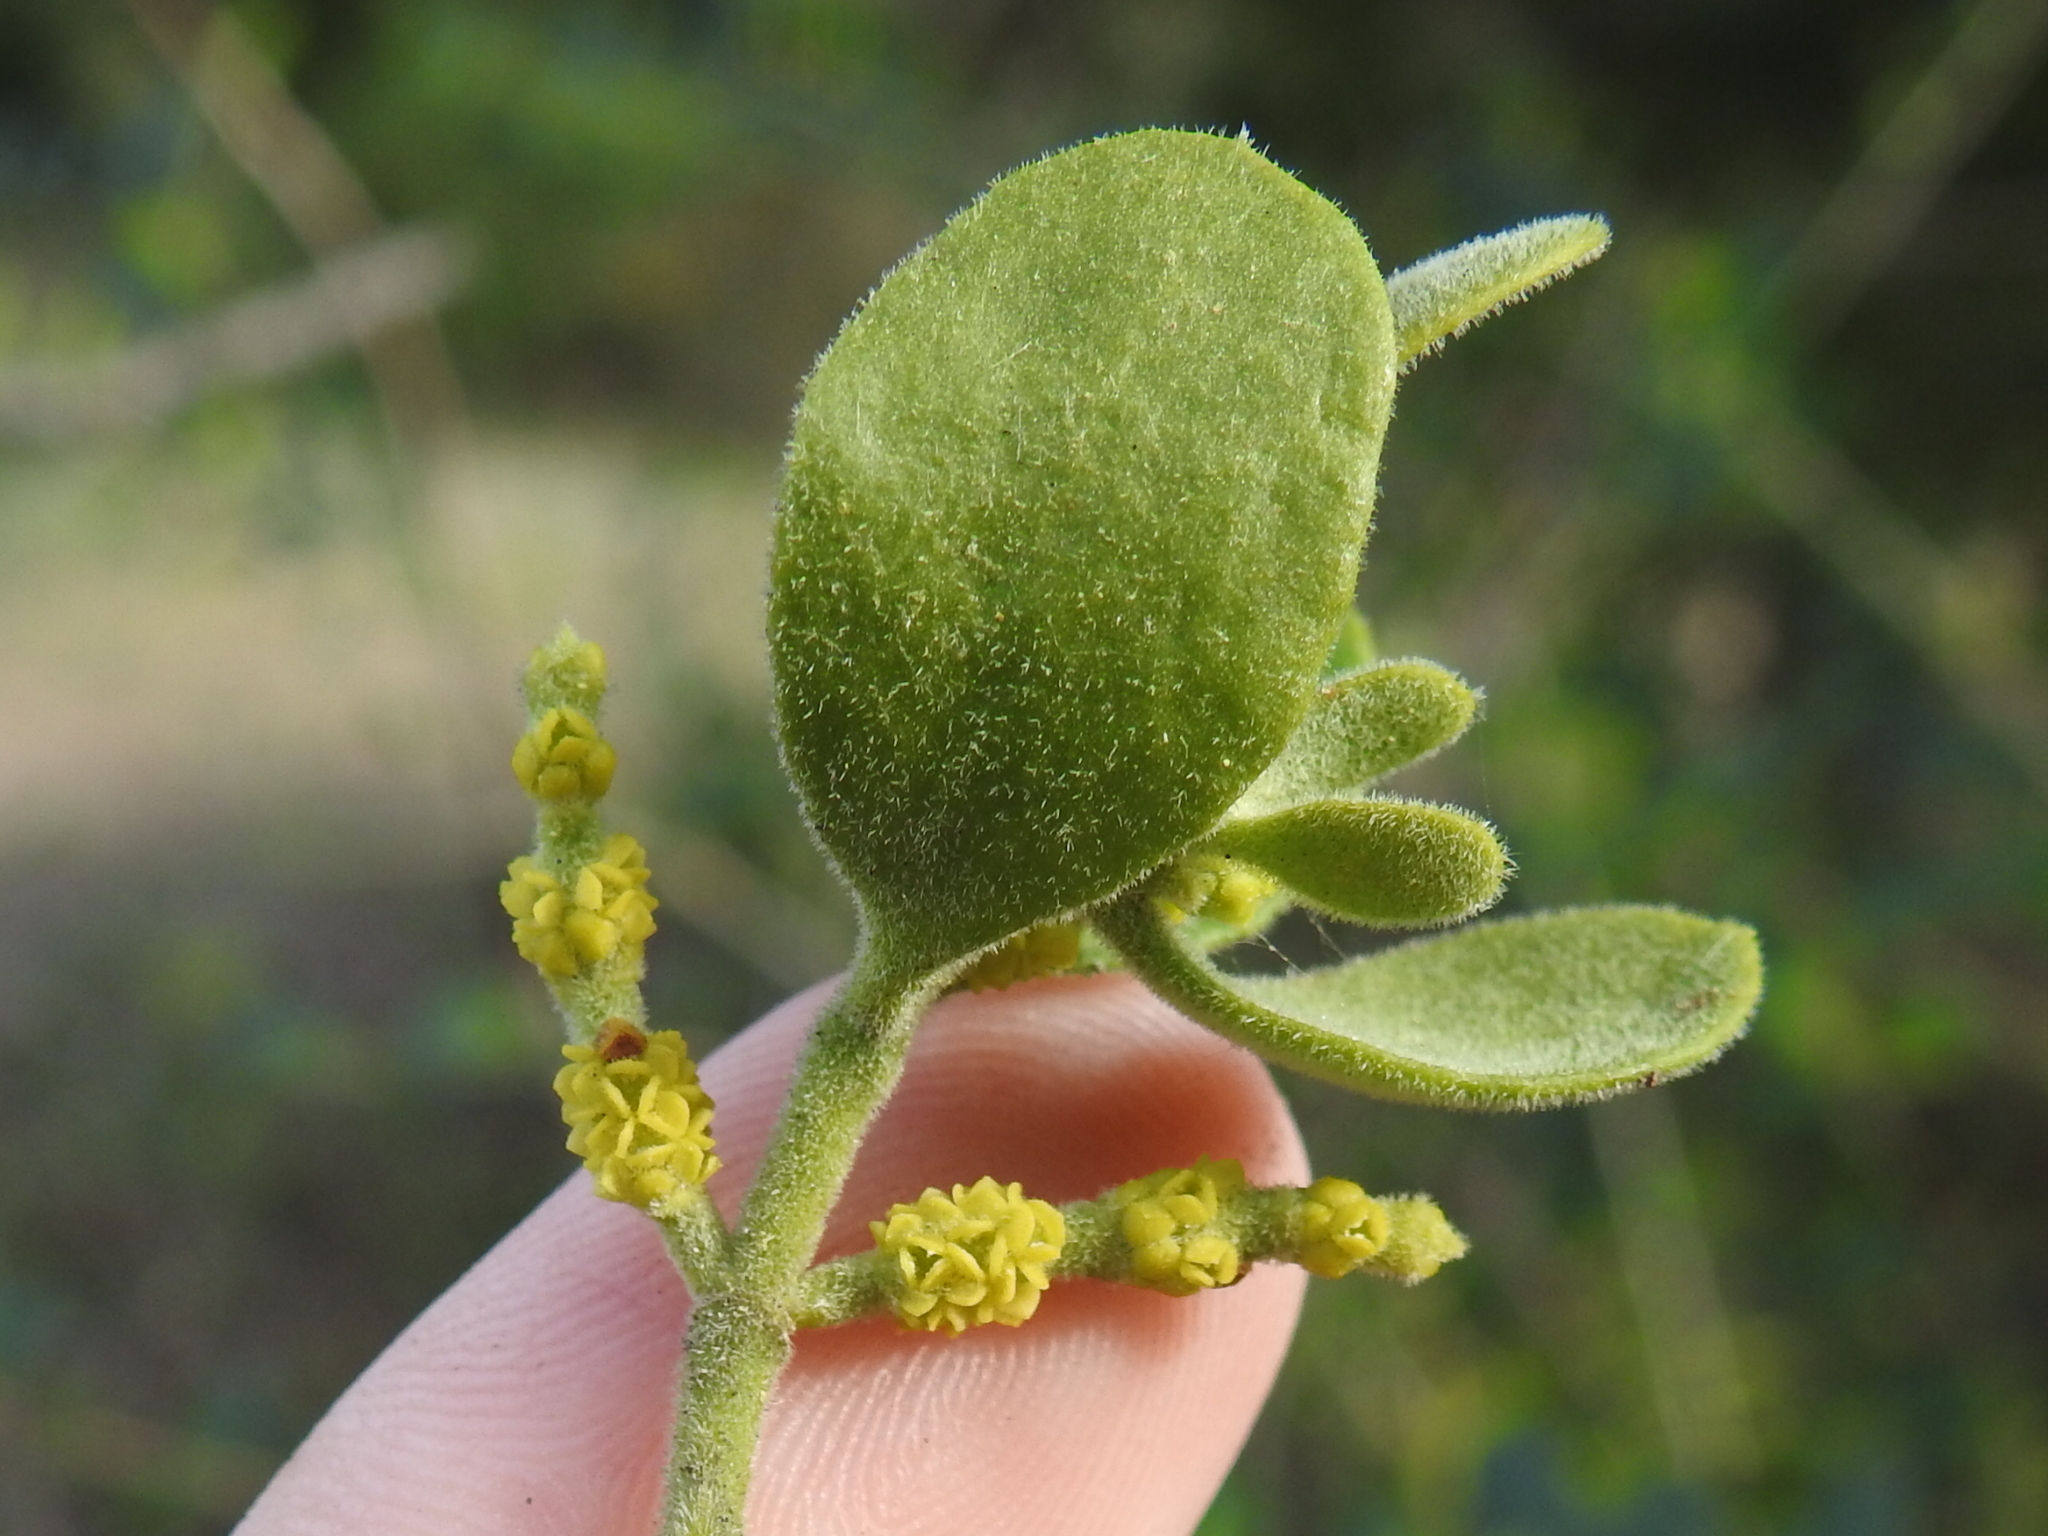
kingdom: Plantae
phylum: Tracheophyta
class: Magnoliopsida
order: Santalales
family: Viscaceae
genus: Phoradendron
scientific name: Phoradendron leucarpum
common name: Pacific mistletoe
